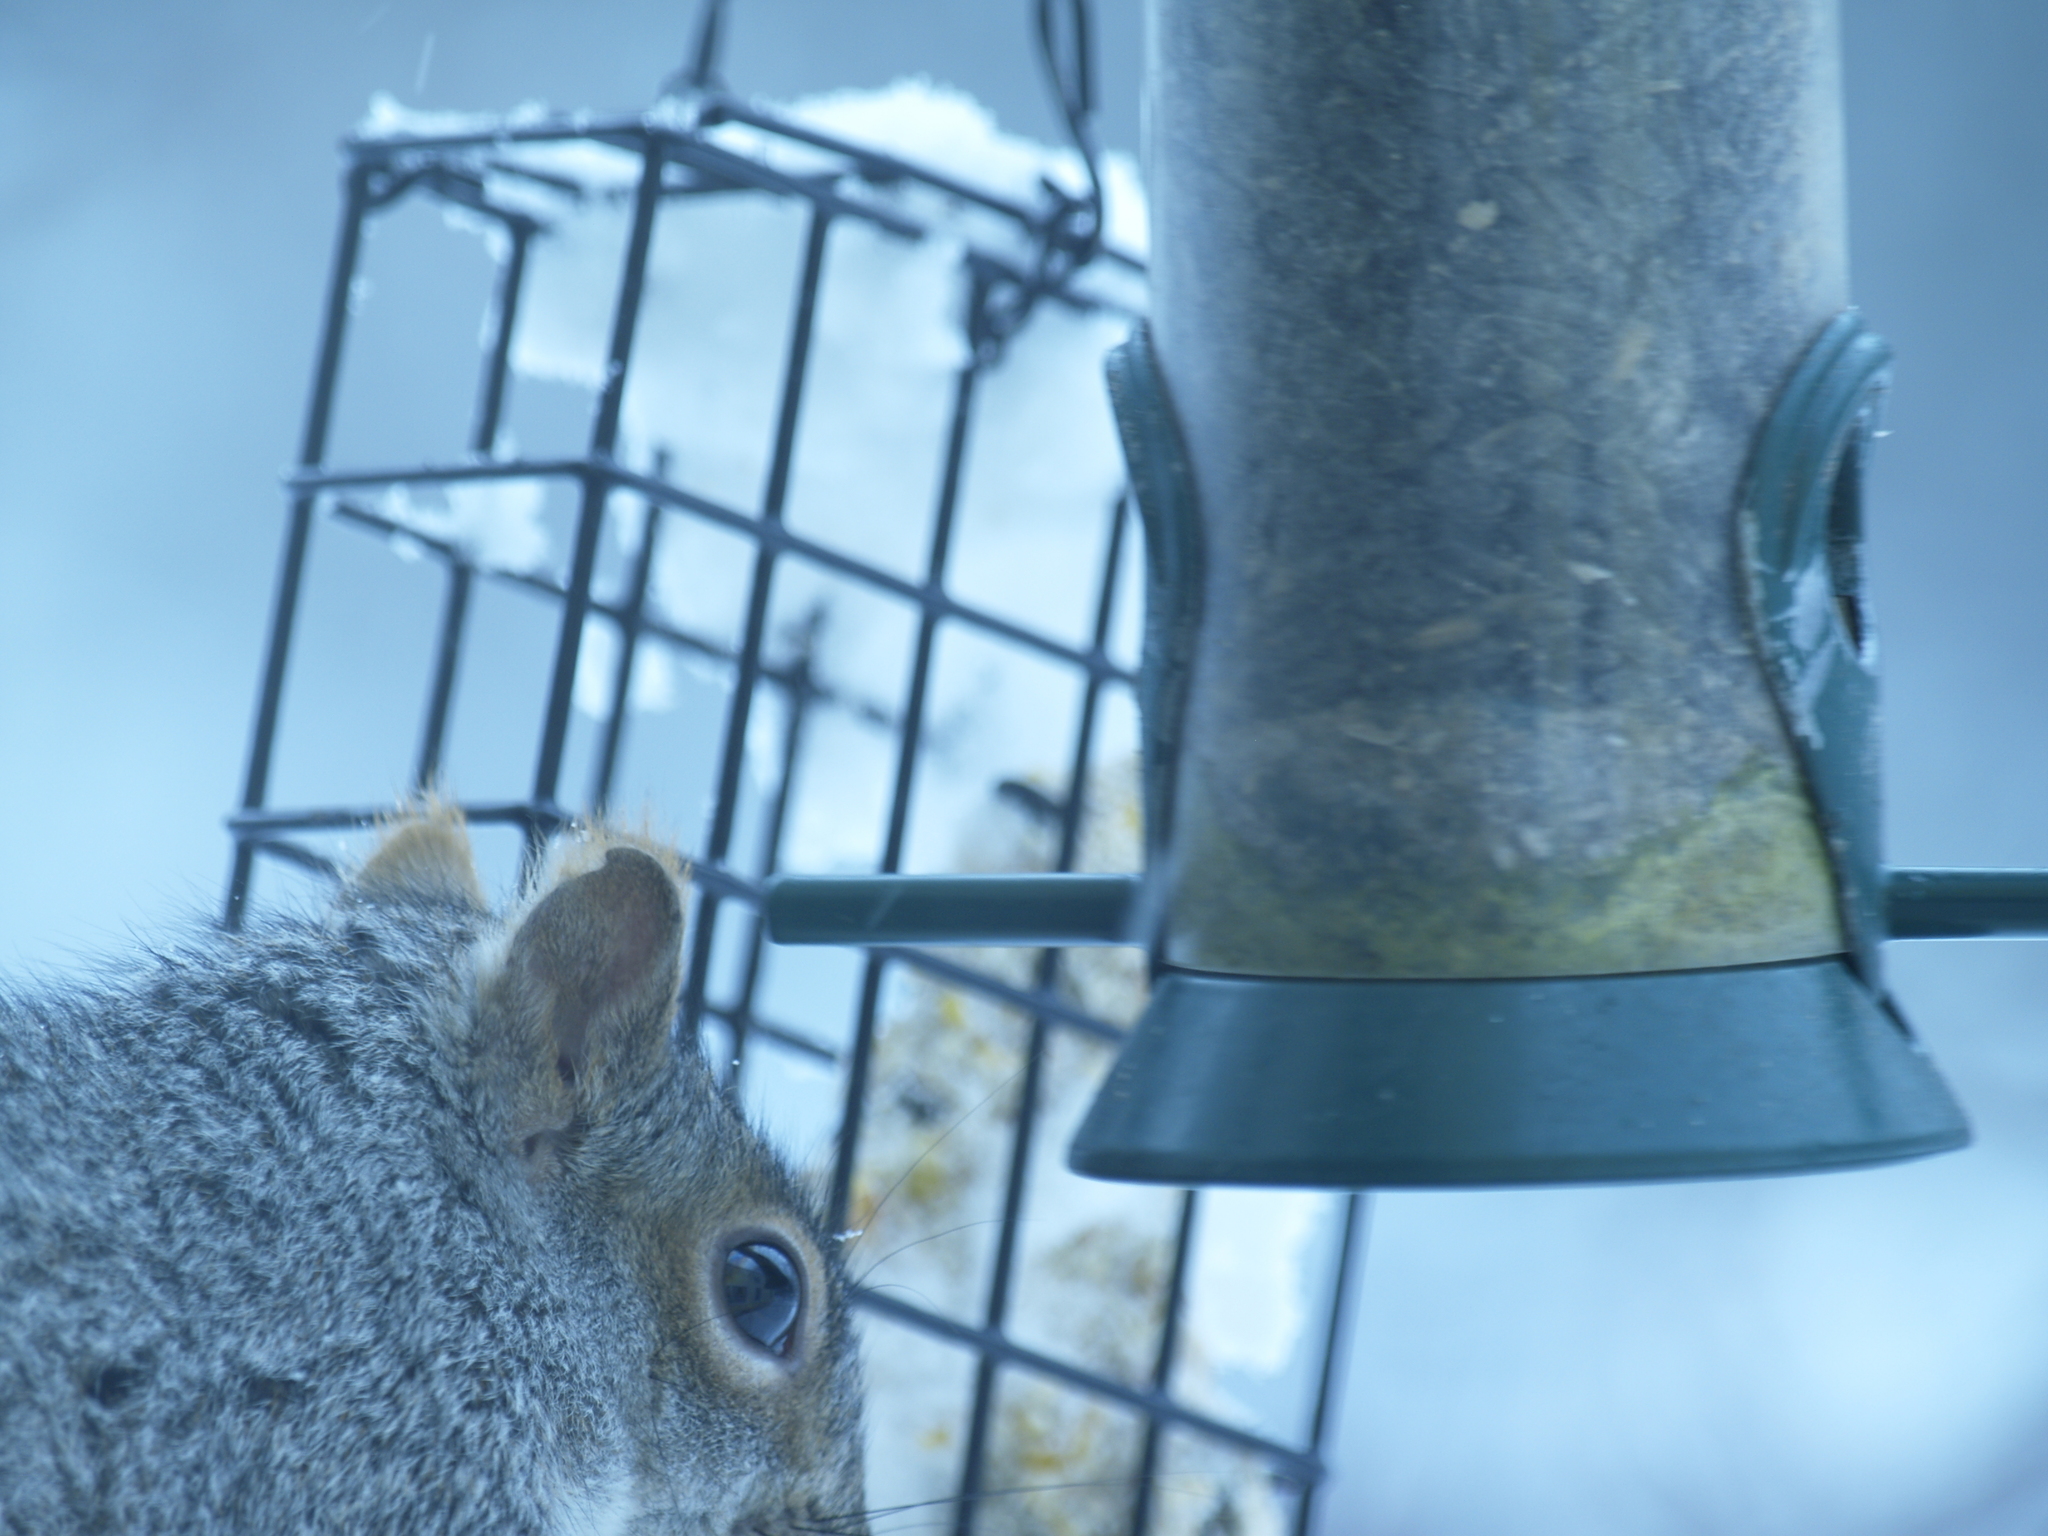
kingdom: Animalia
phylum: Chordata
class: Mammalia
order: Rodentia
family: Sciuridae
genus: Sciurus
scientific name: Sciurus carolinensis
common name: Eastern gray squirrel
